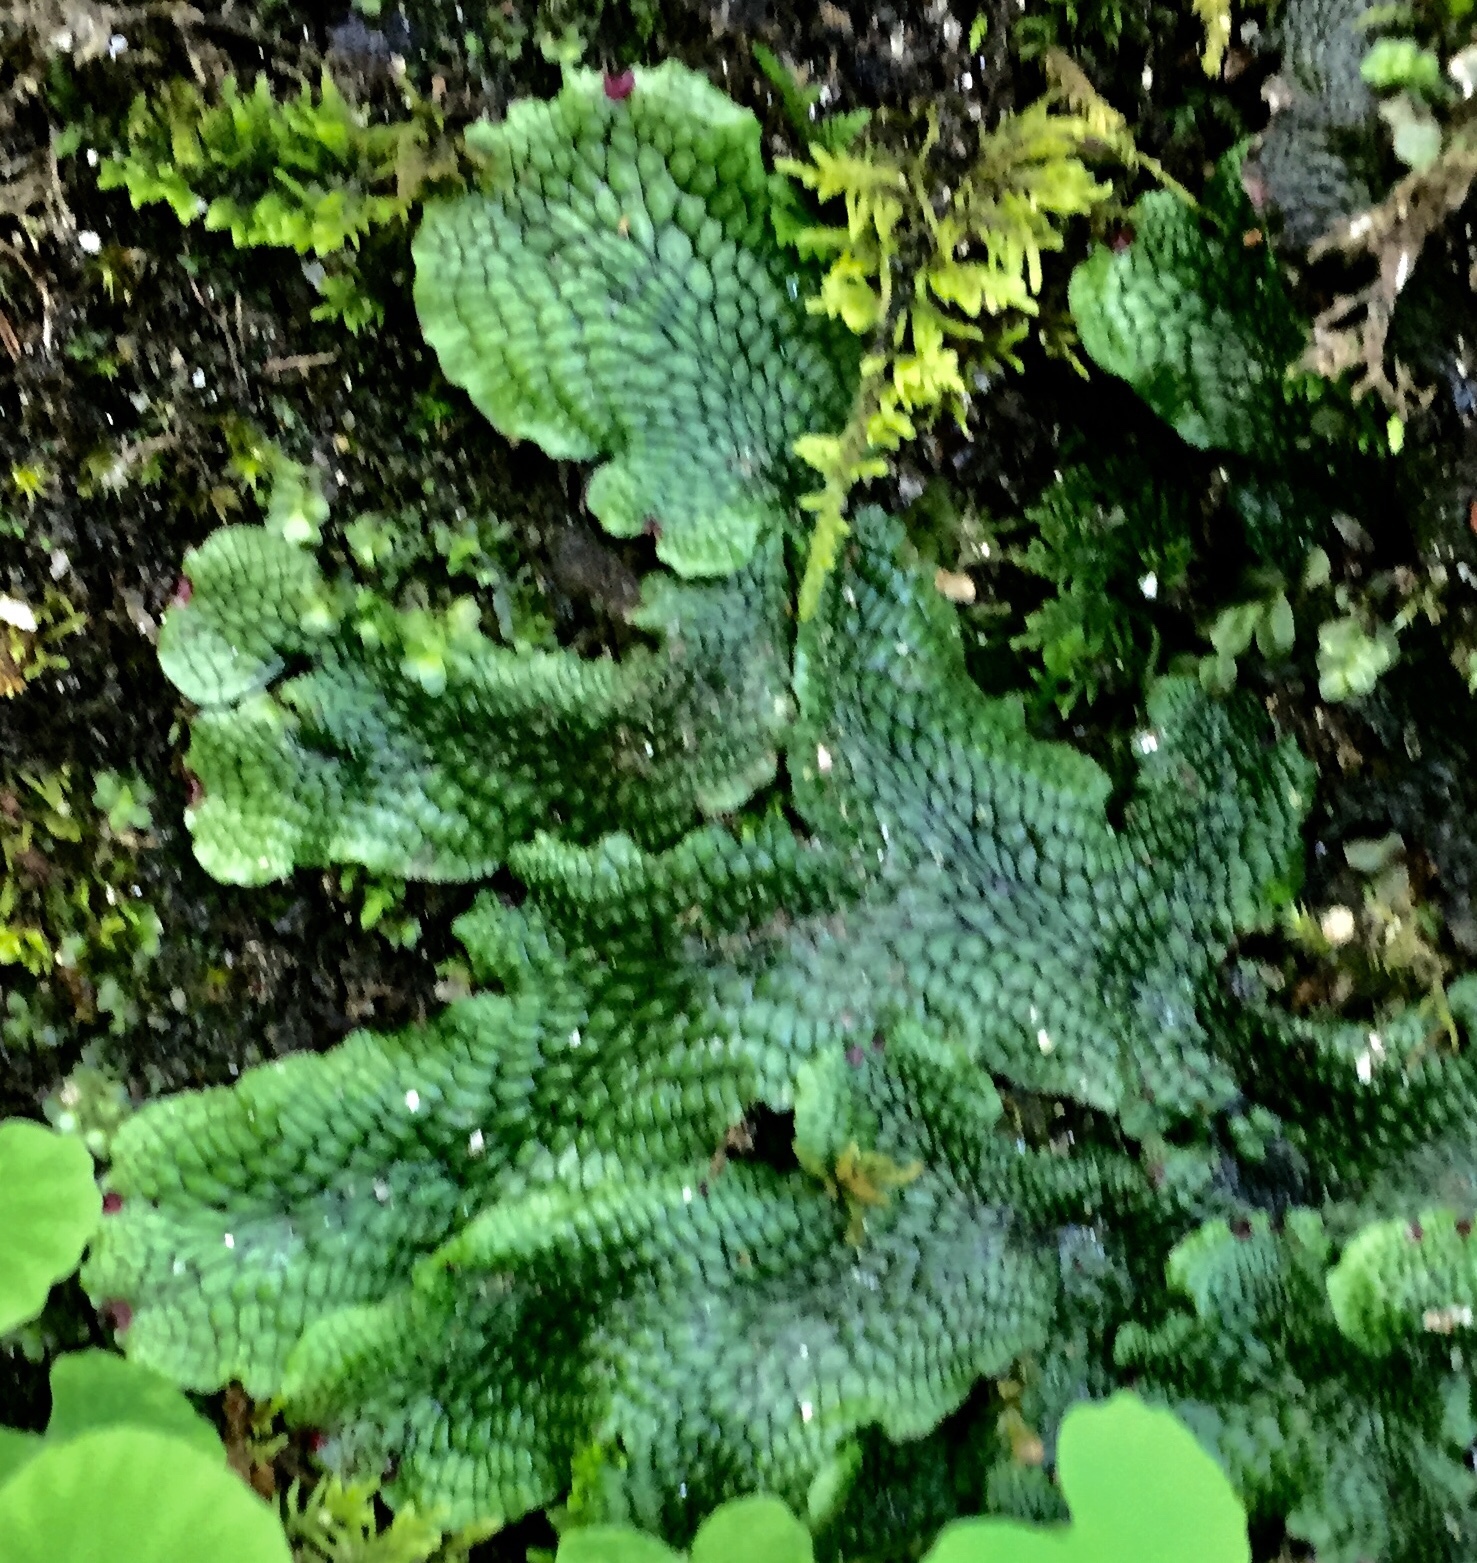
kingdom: Plantae
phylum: Marchantiophyta
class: Marchantiopsida
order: Marchantiales
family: Conocephalaceae
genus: Conocephalum
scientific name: Conocephalum salebrosum
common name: Cat-tongue liverwort
